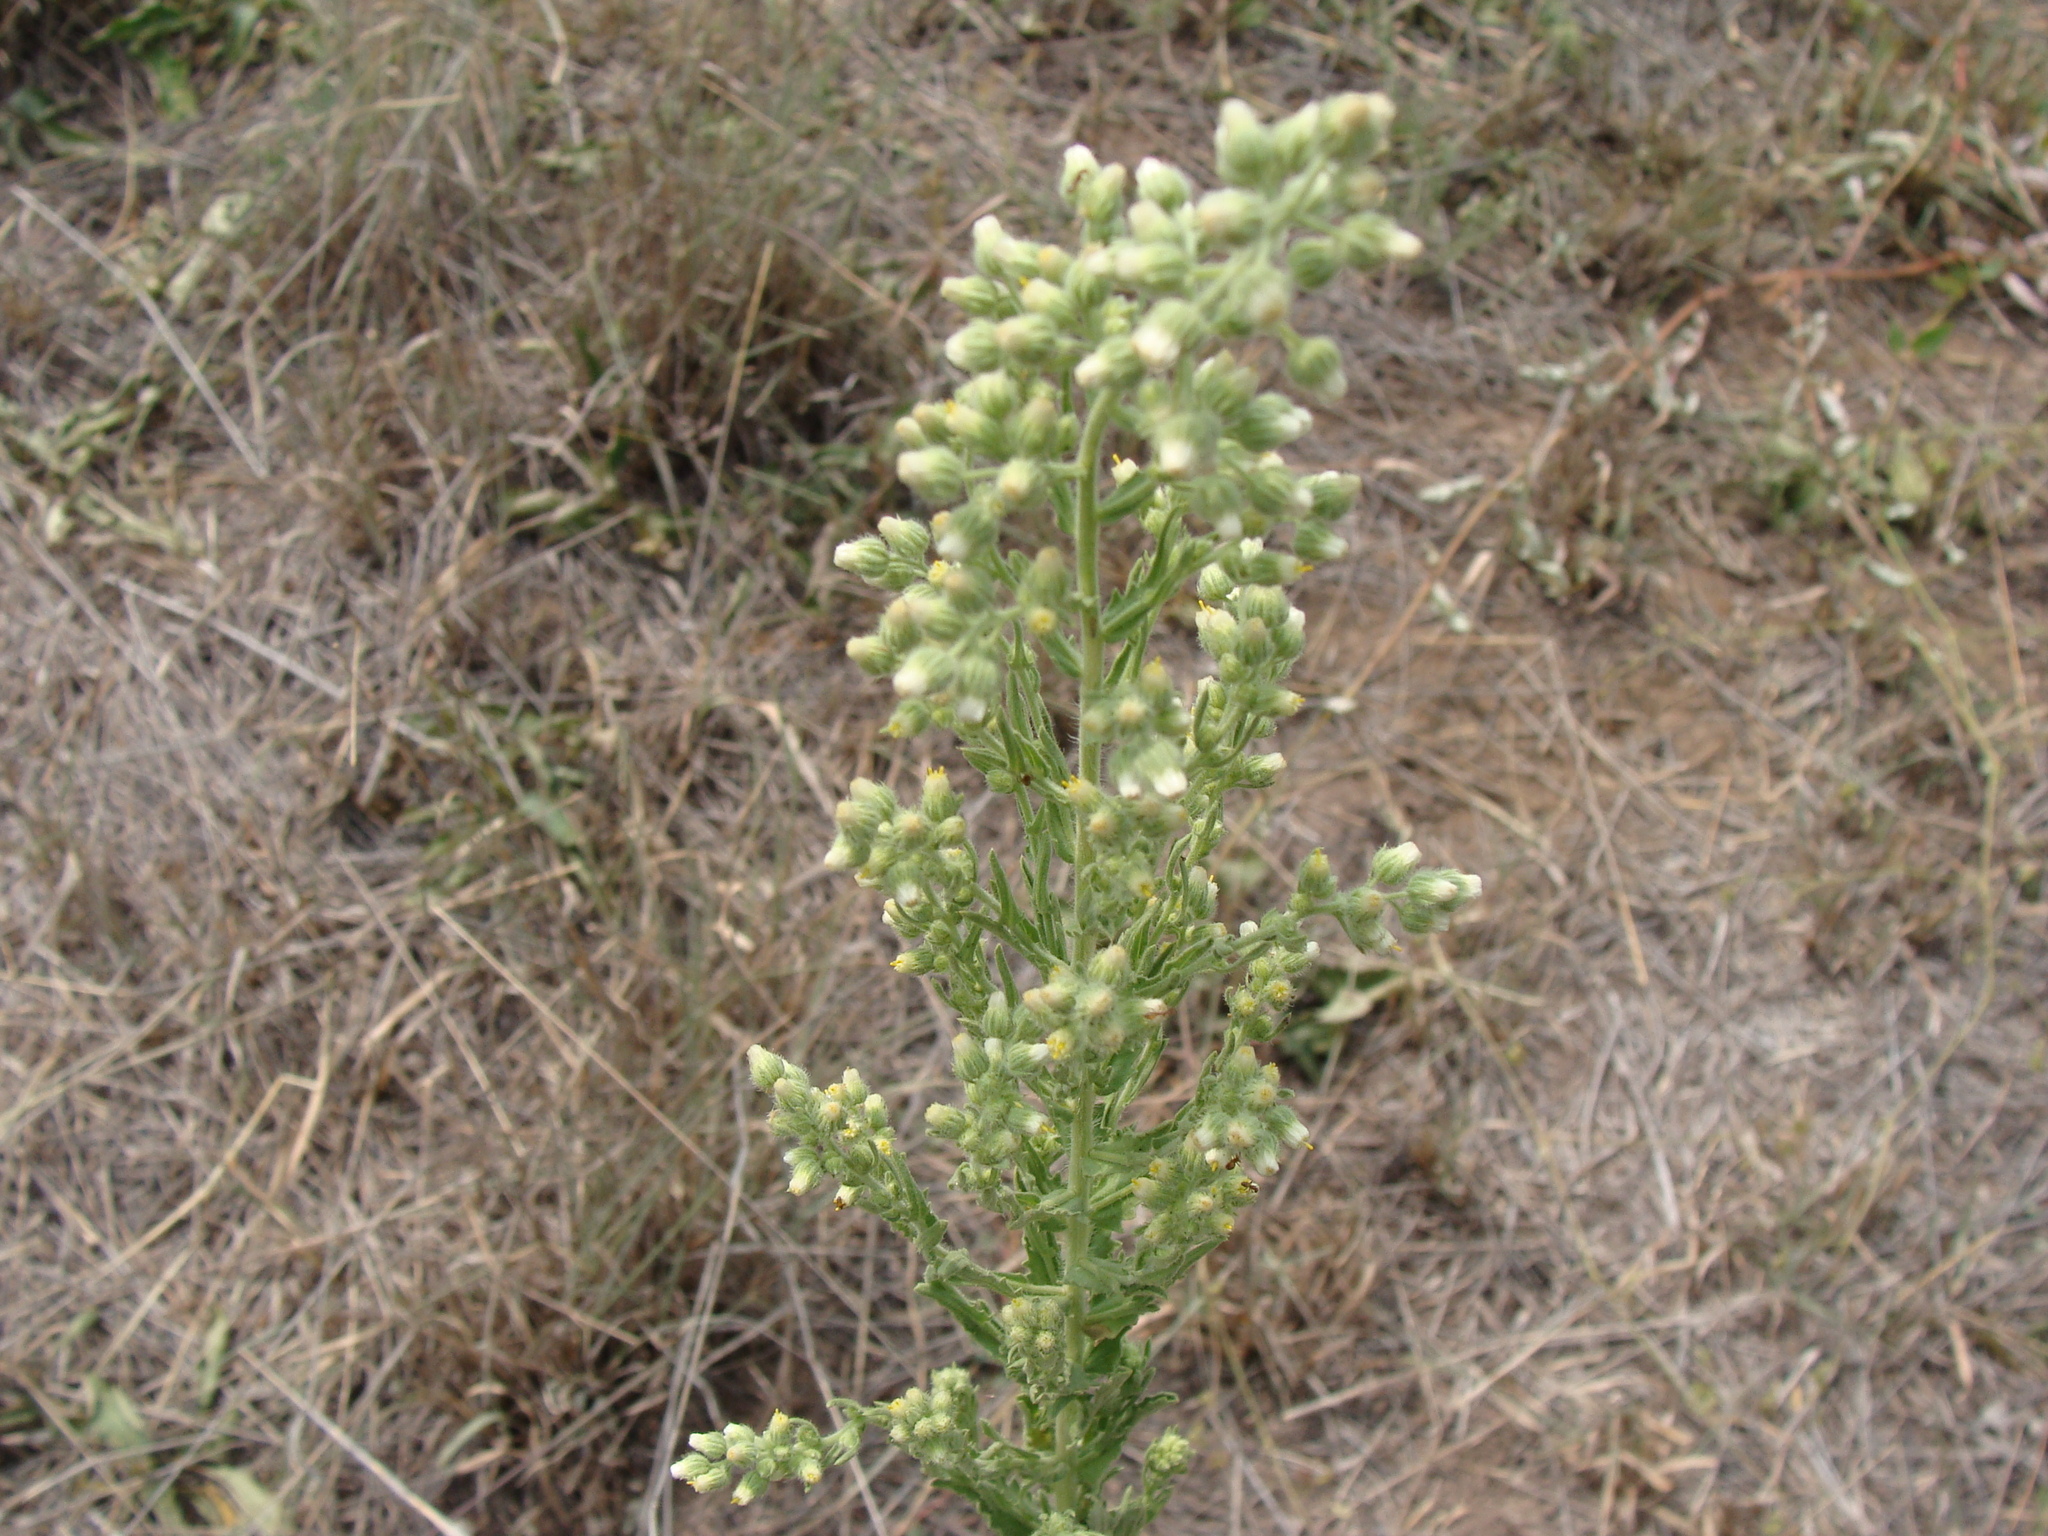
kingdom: Plantae
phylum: Tracheophyta
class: Magnoliopsida
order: Asterales
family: Asteraceae
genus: Laennecia
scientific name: Laennecia coulteri
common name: Coulter's woolwort
